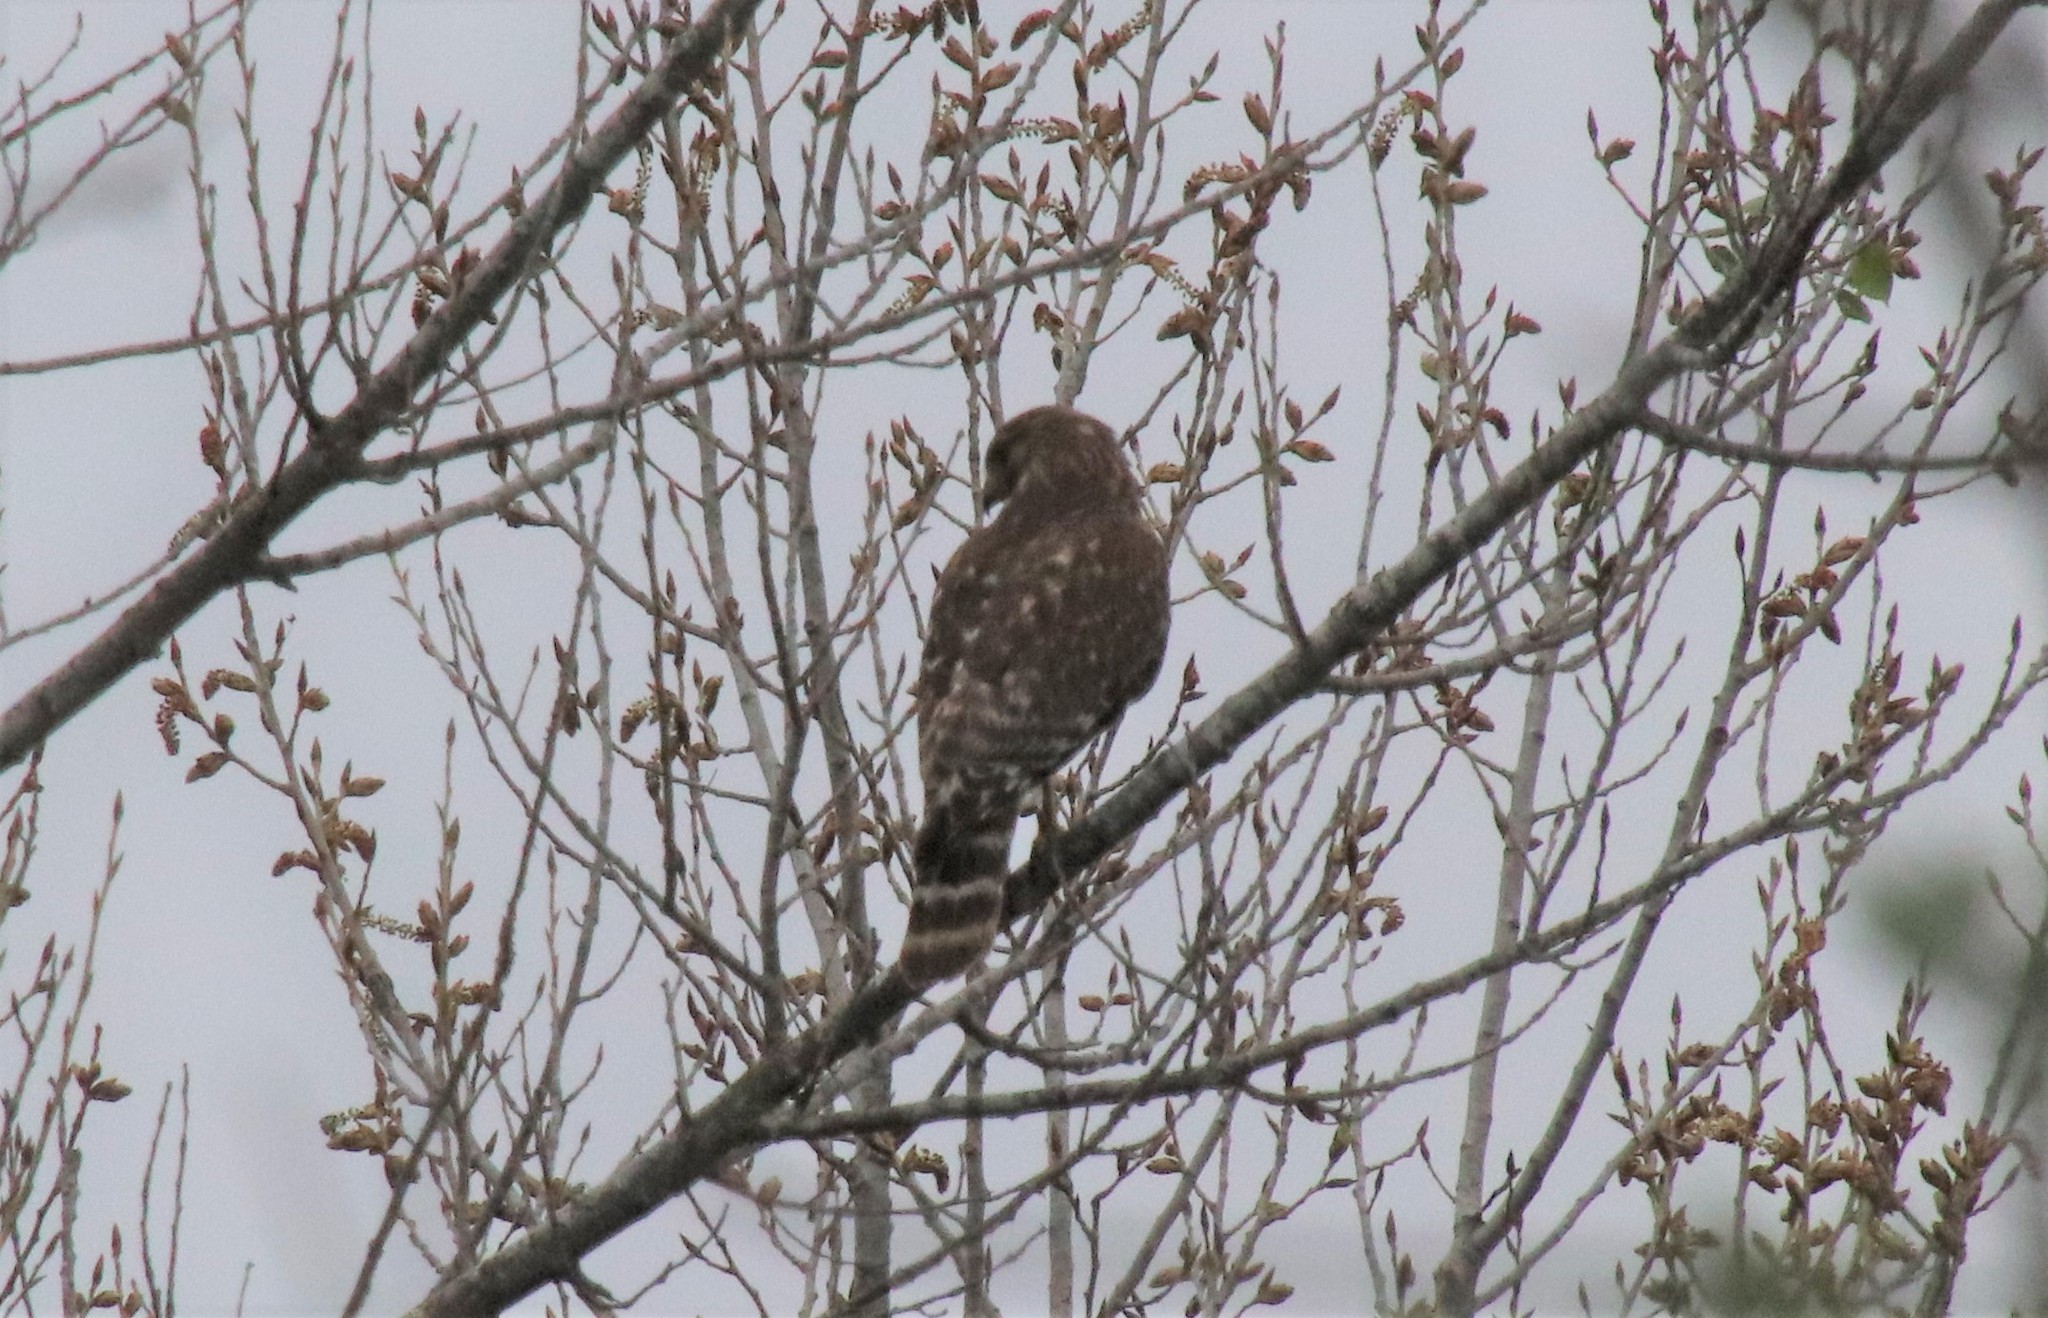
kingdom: Animalia
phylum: Chordata
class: Aves
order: Accipitriformes
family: Accipitridae
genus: Buteo
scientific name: Buteo lineatus
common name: Red-shouldered hawk
